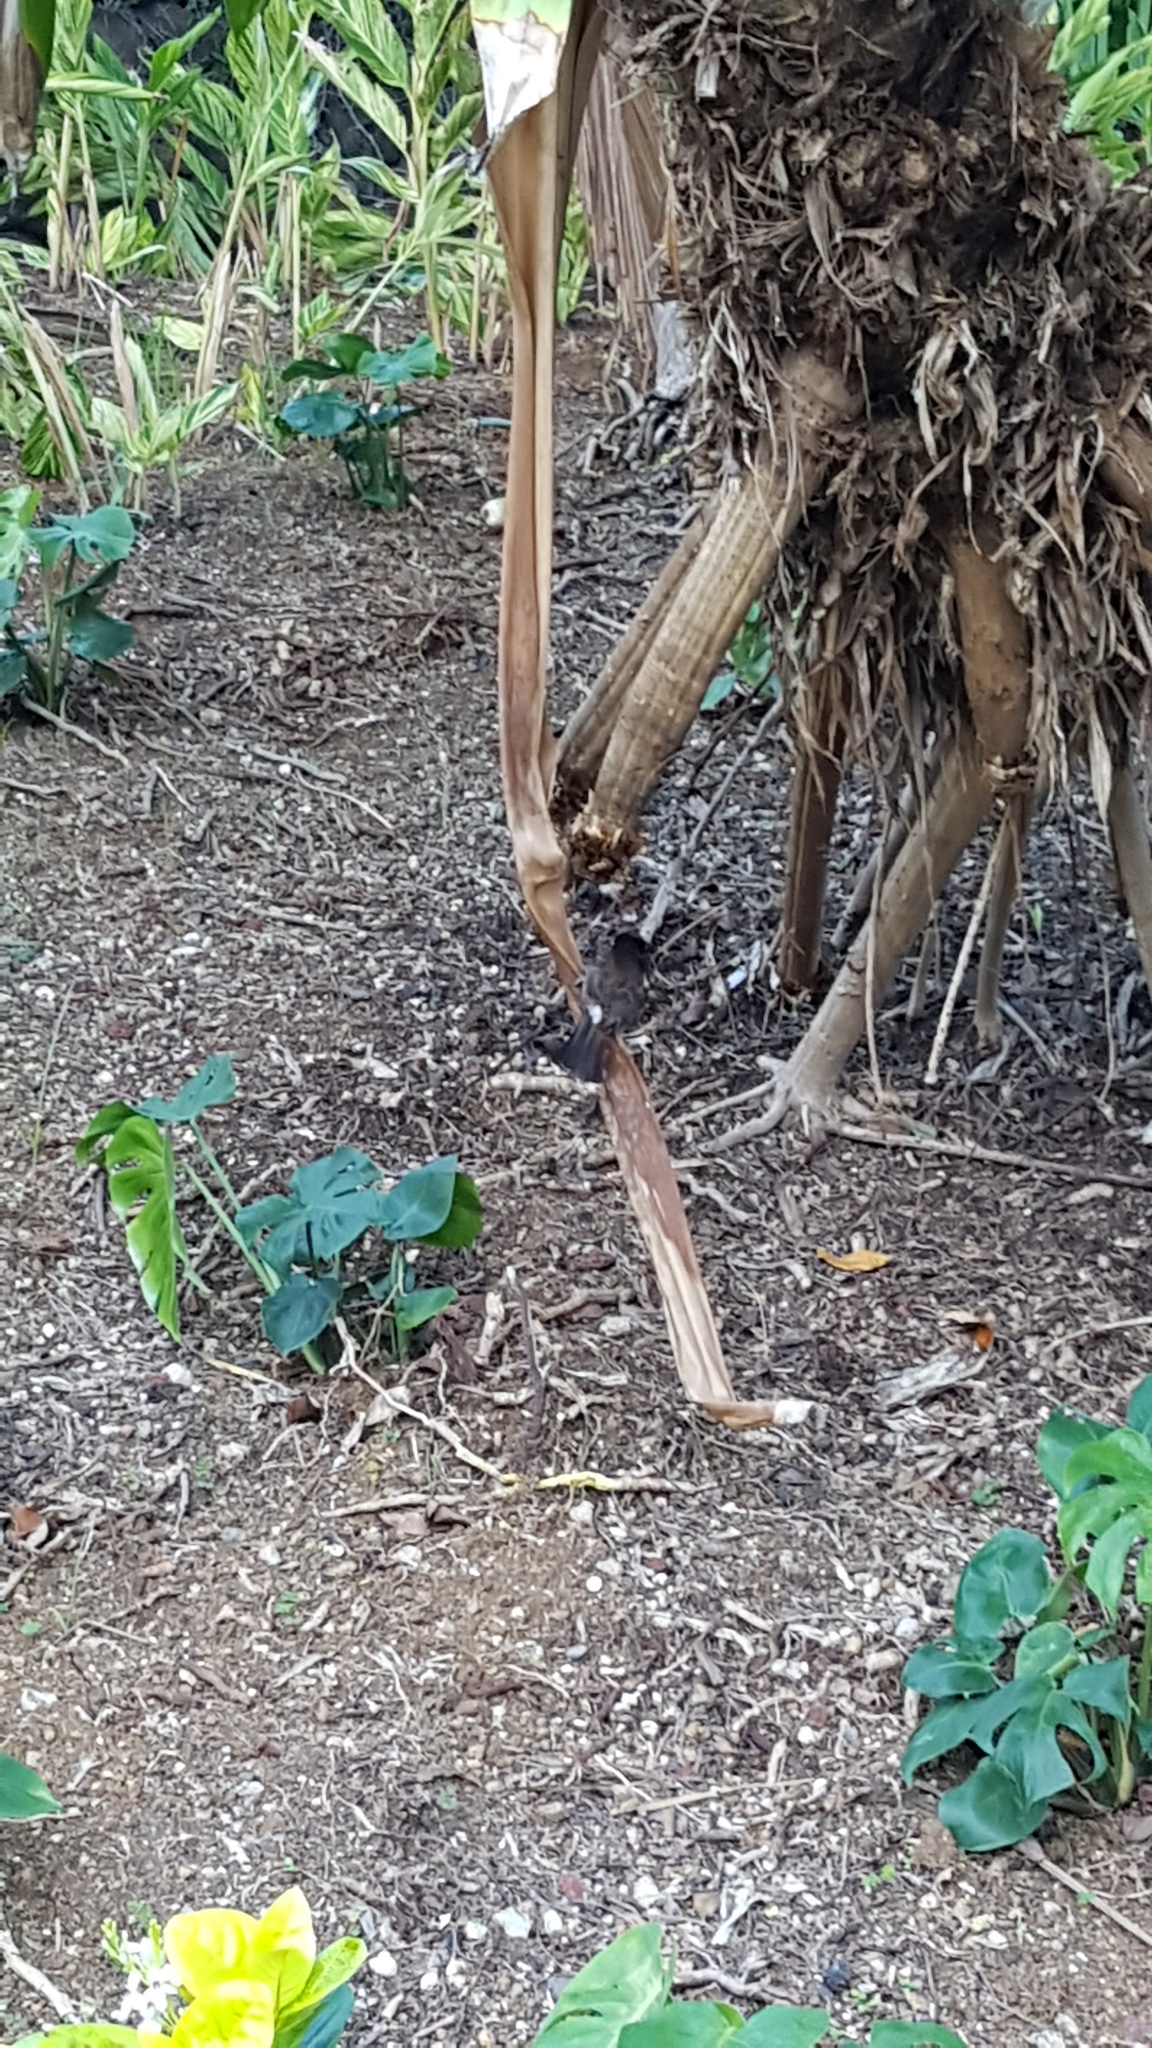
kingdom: Animalia
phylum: Chordata
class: Aves
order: Passeriformes
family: Pycnonotidae
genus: Pycnonotus
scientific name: Pycnonotus cafer
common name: Red-vented bulbul
